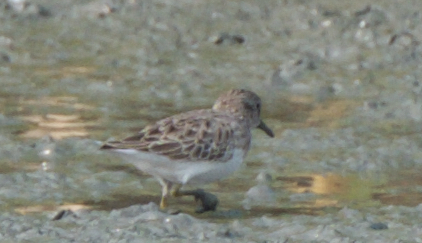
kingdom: Animalia
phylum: Chordata
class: Aves
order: Charadriiformes
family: Scolopacidae
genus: Calidris
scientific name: Calidris minutilla
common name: Least sandpiper
